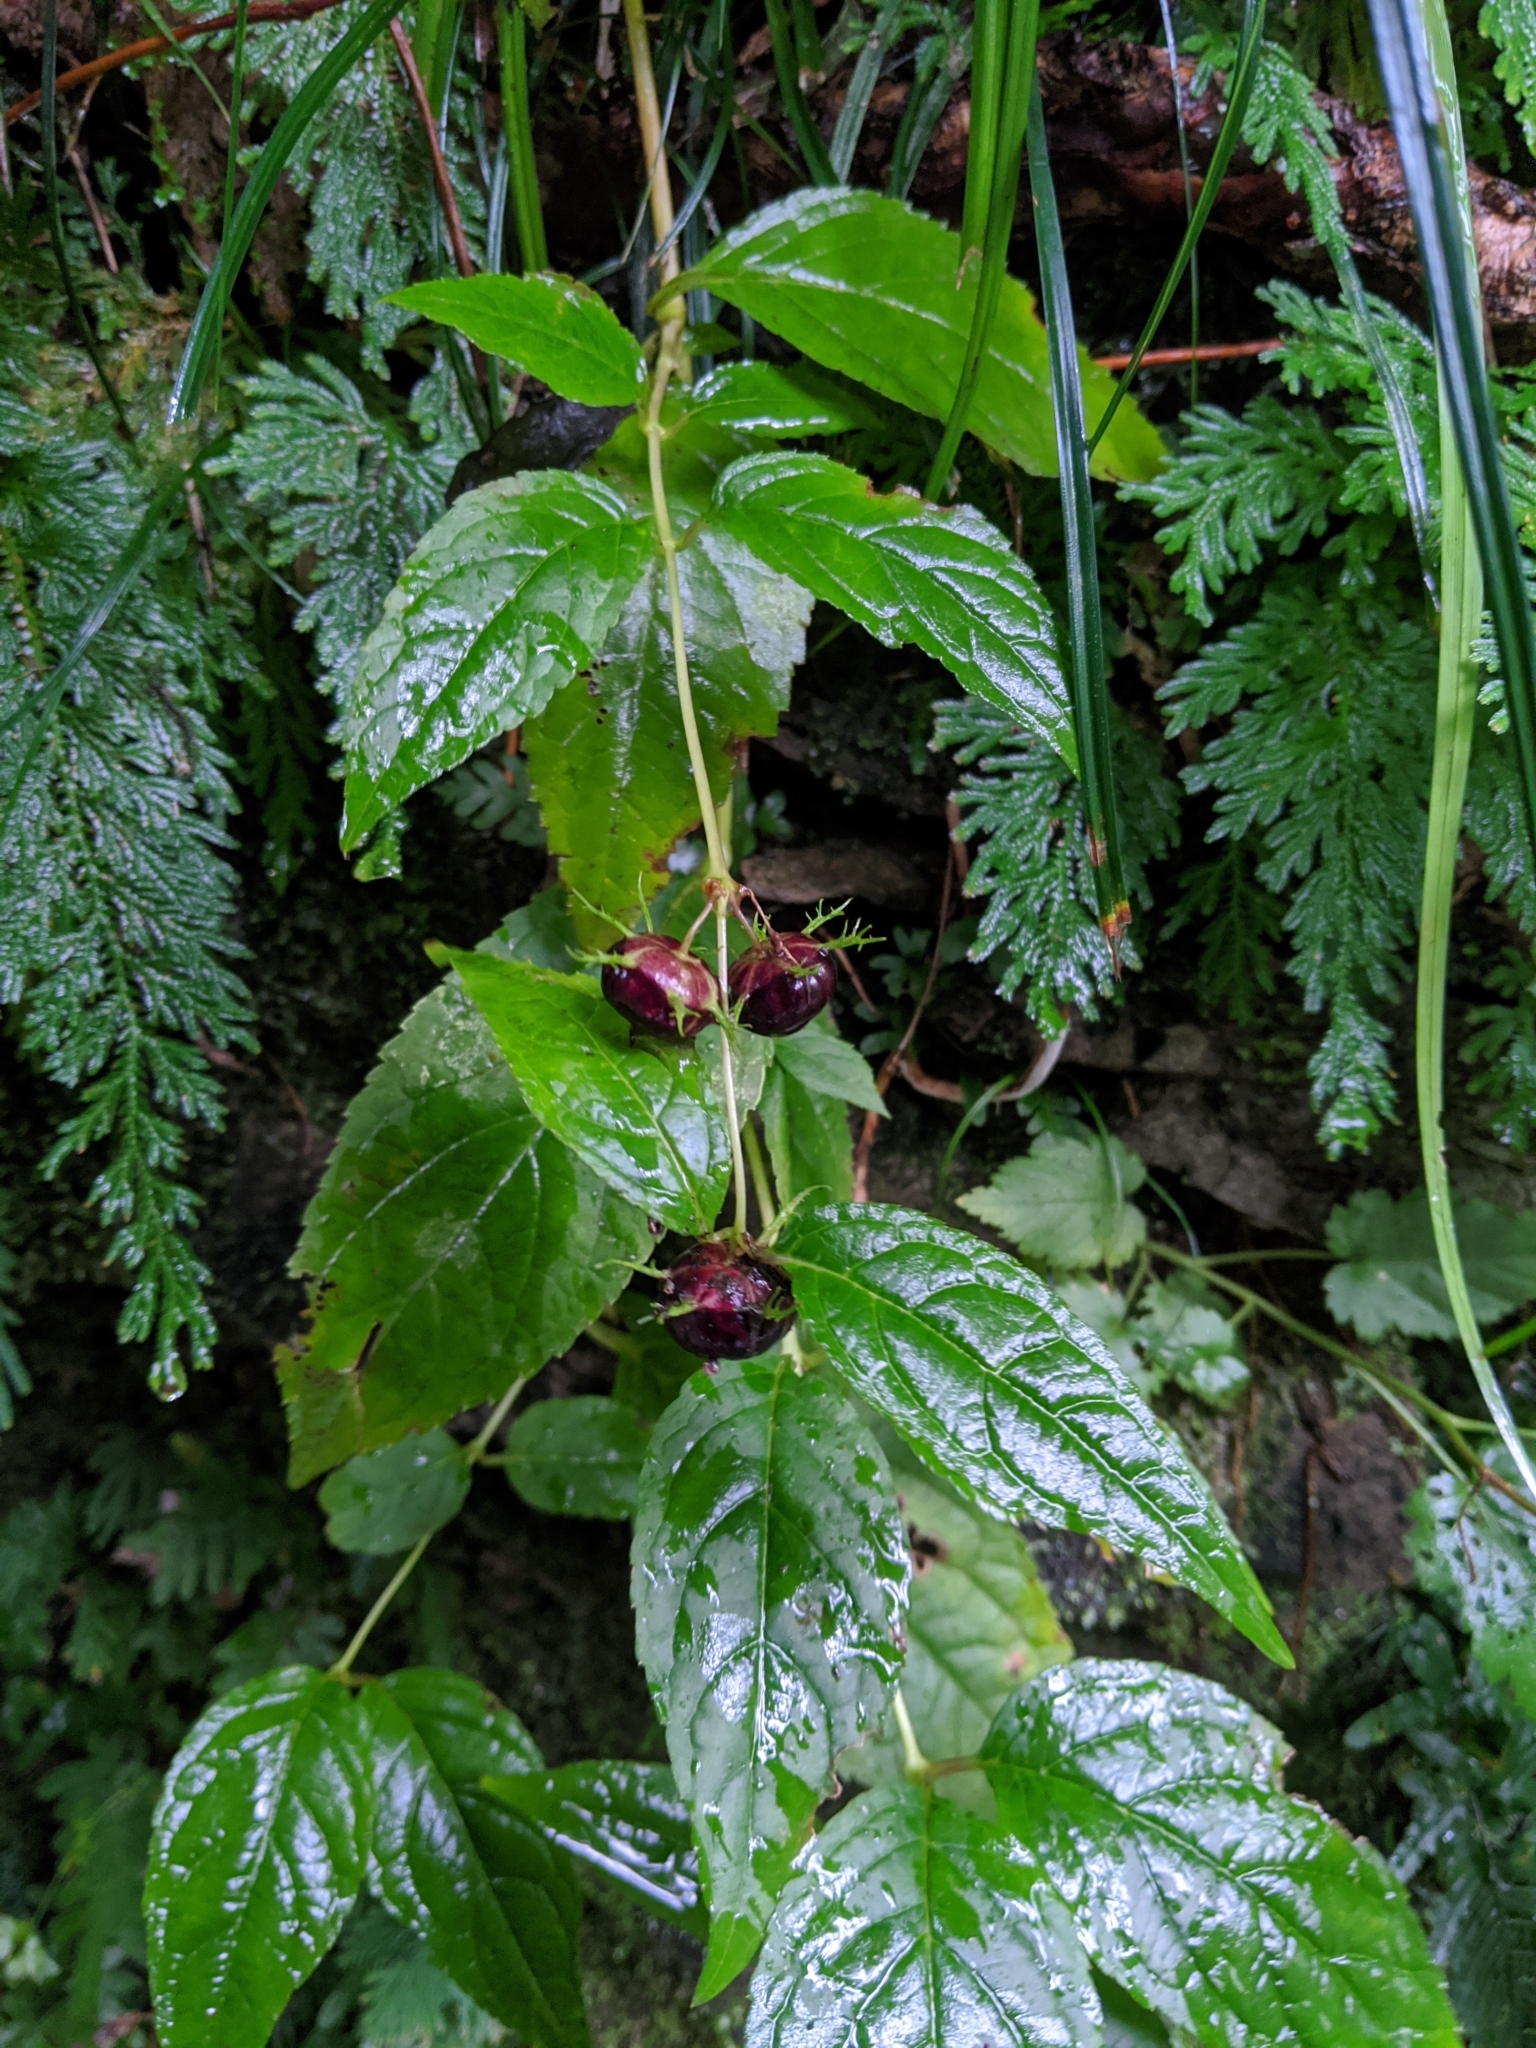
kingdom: Plantae
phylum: Tracheophyta
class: Magnoliopsida
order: Asterales
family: Campanulaceae
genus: Cyclocodon
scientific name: Cyclocodon lancifolius
